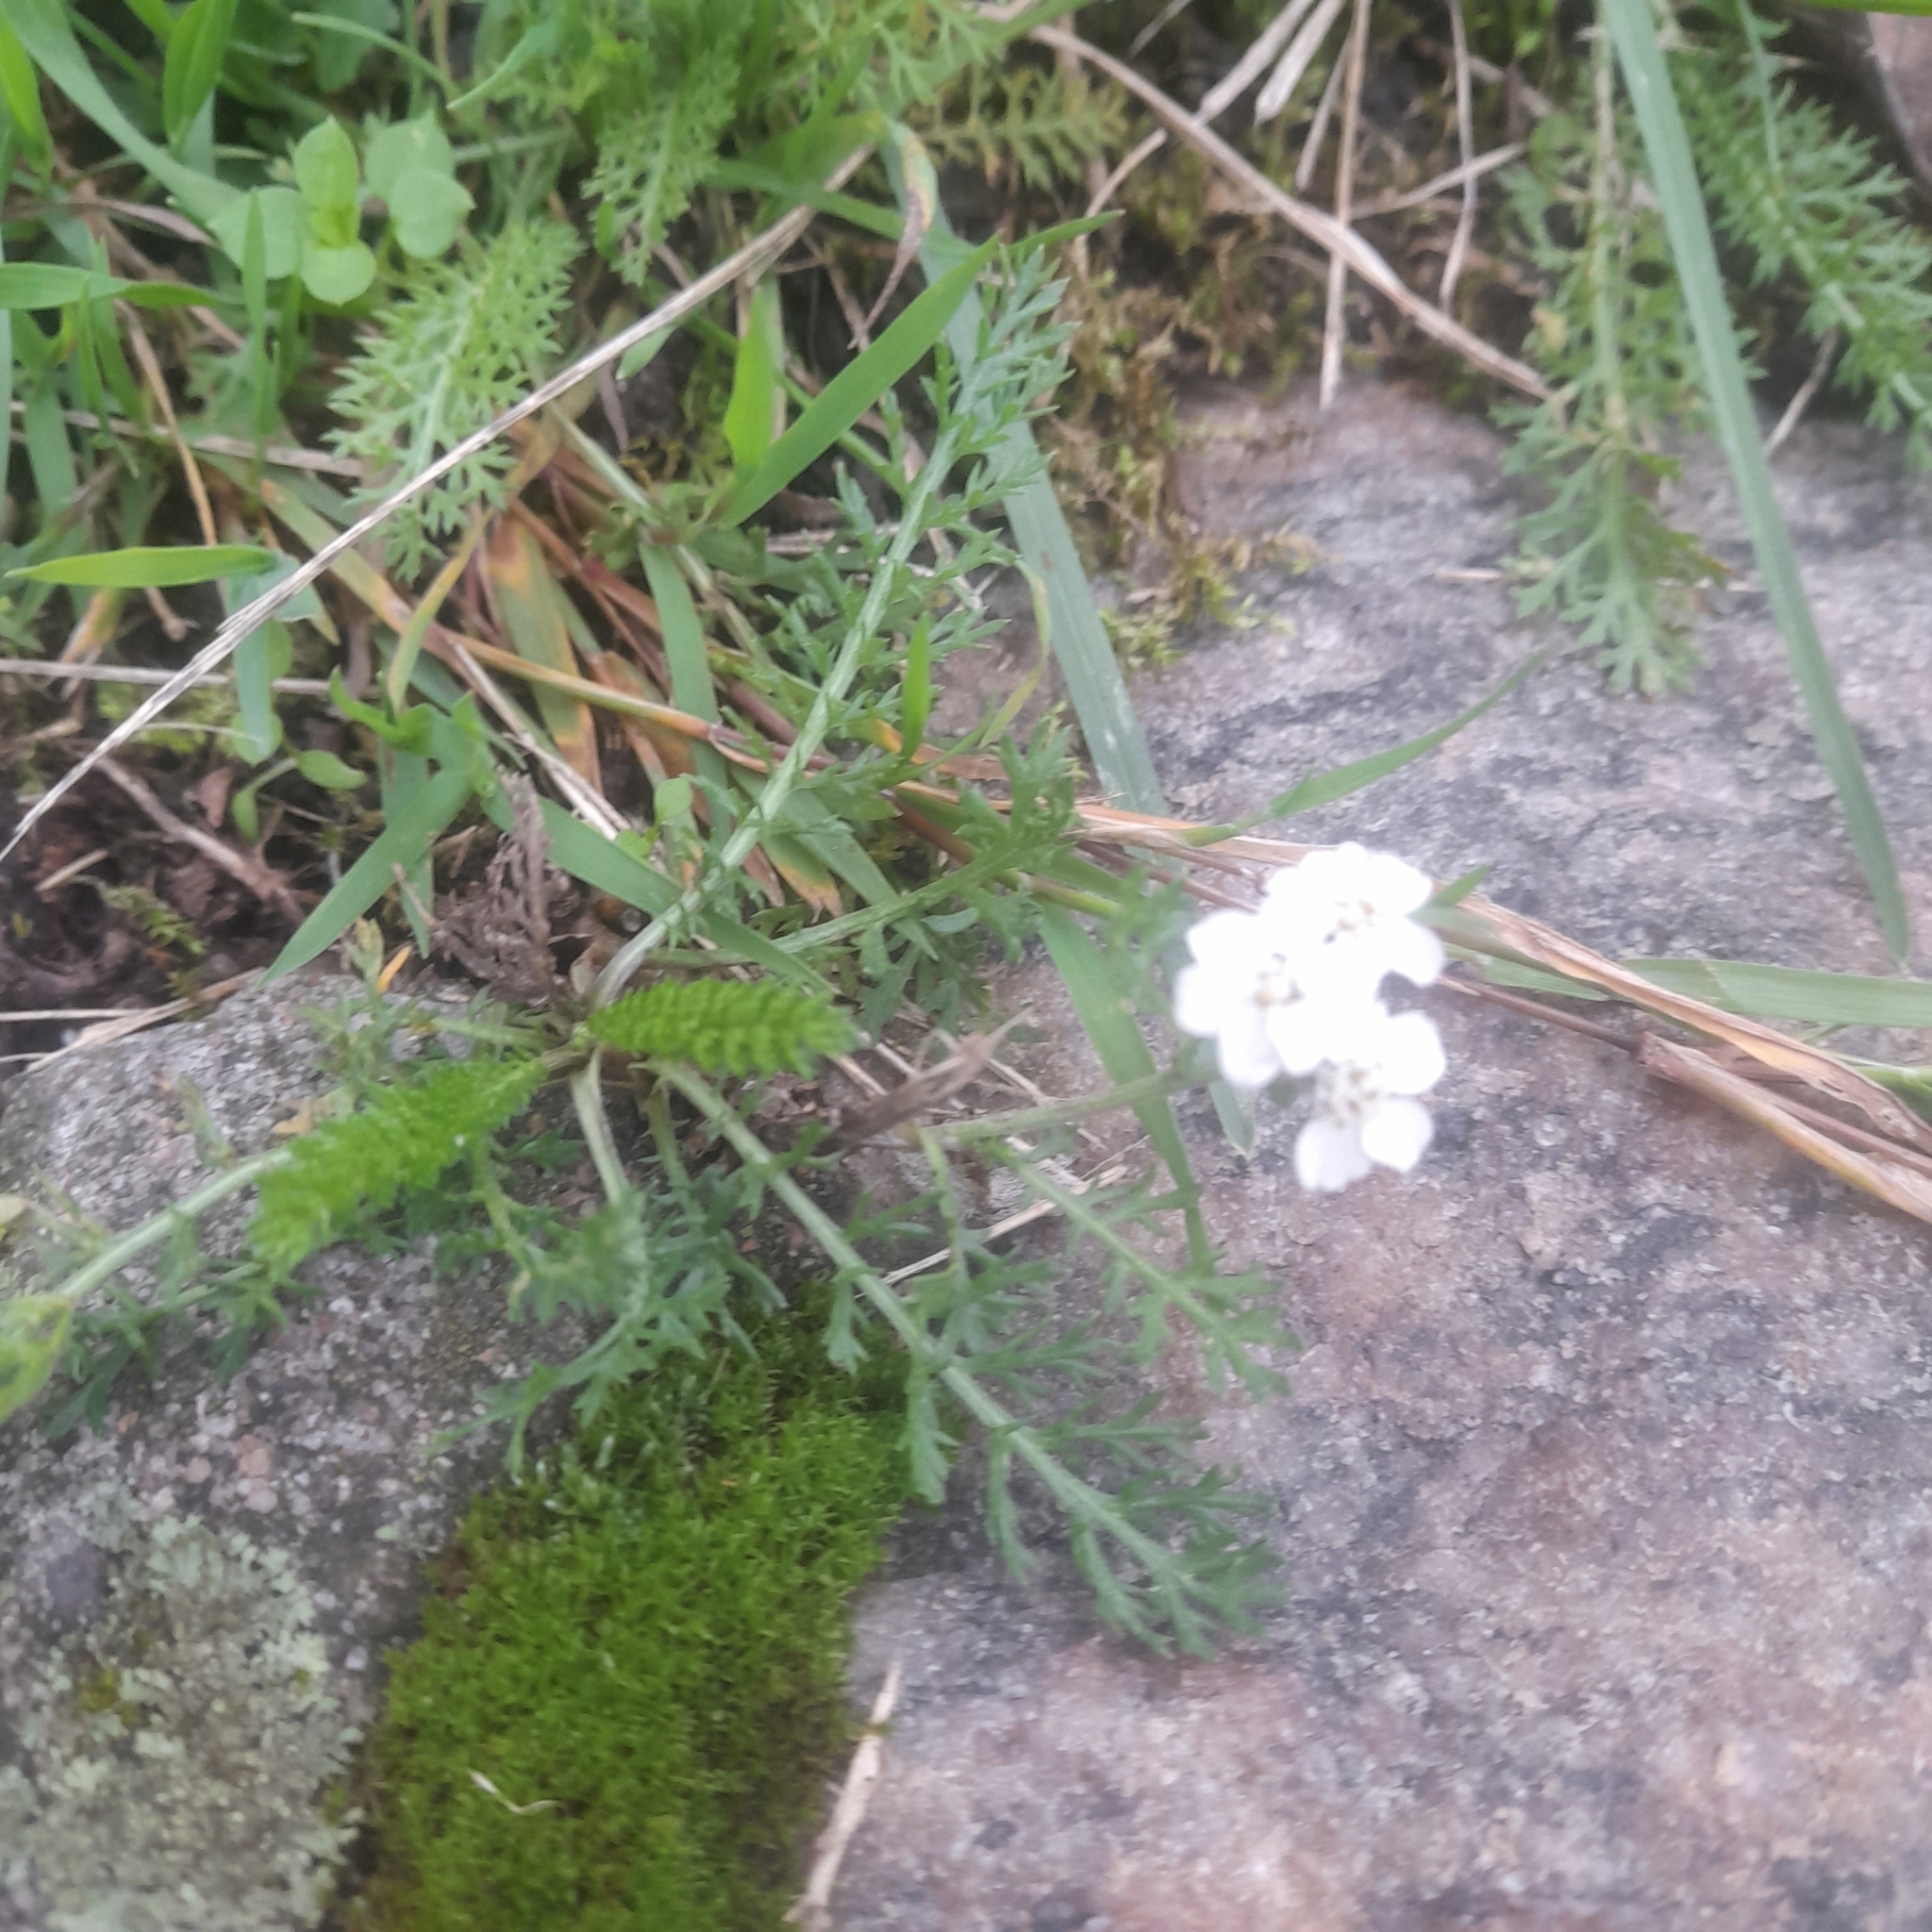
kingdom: Plantae
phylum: Tracheophyta
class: Magnoliopsida
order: Asterales
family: Asteraceae
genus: Achillea
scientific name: Achillea millefolium
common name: Yarrow
